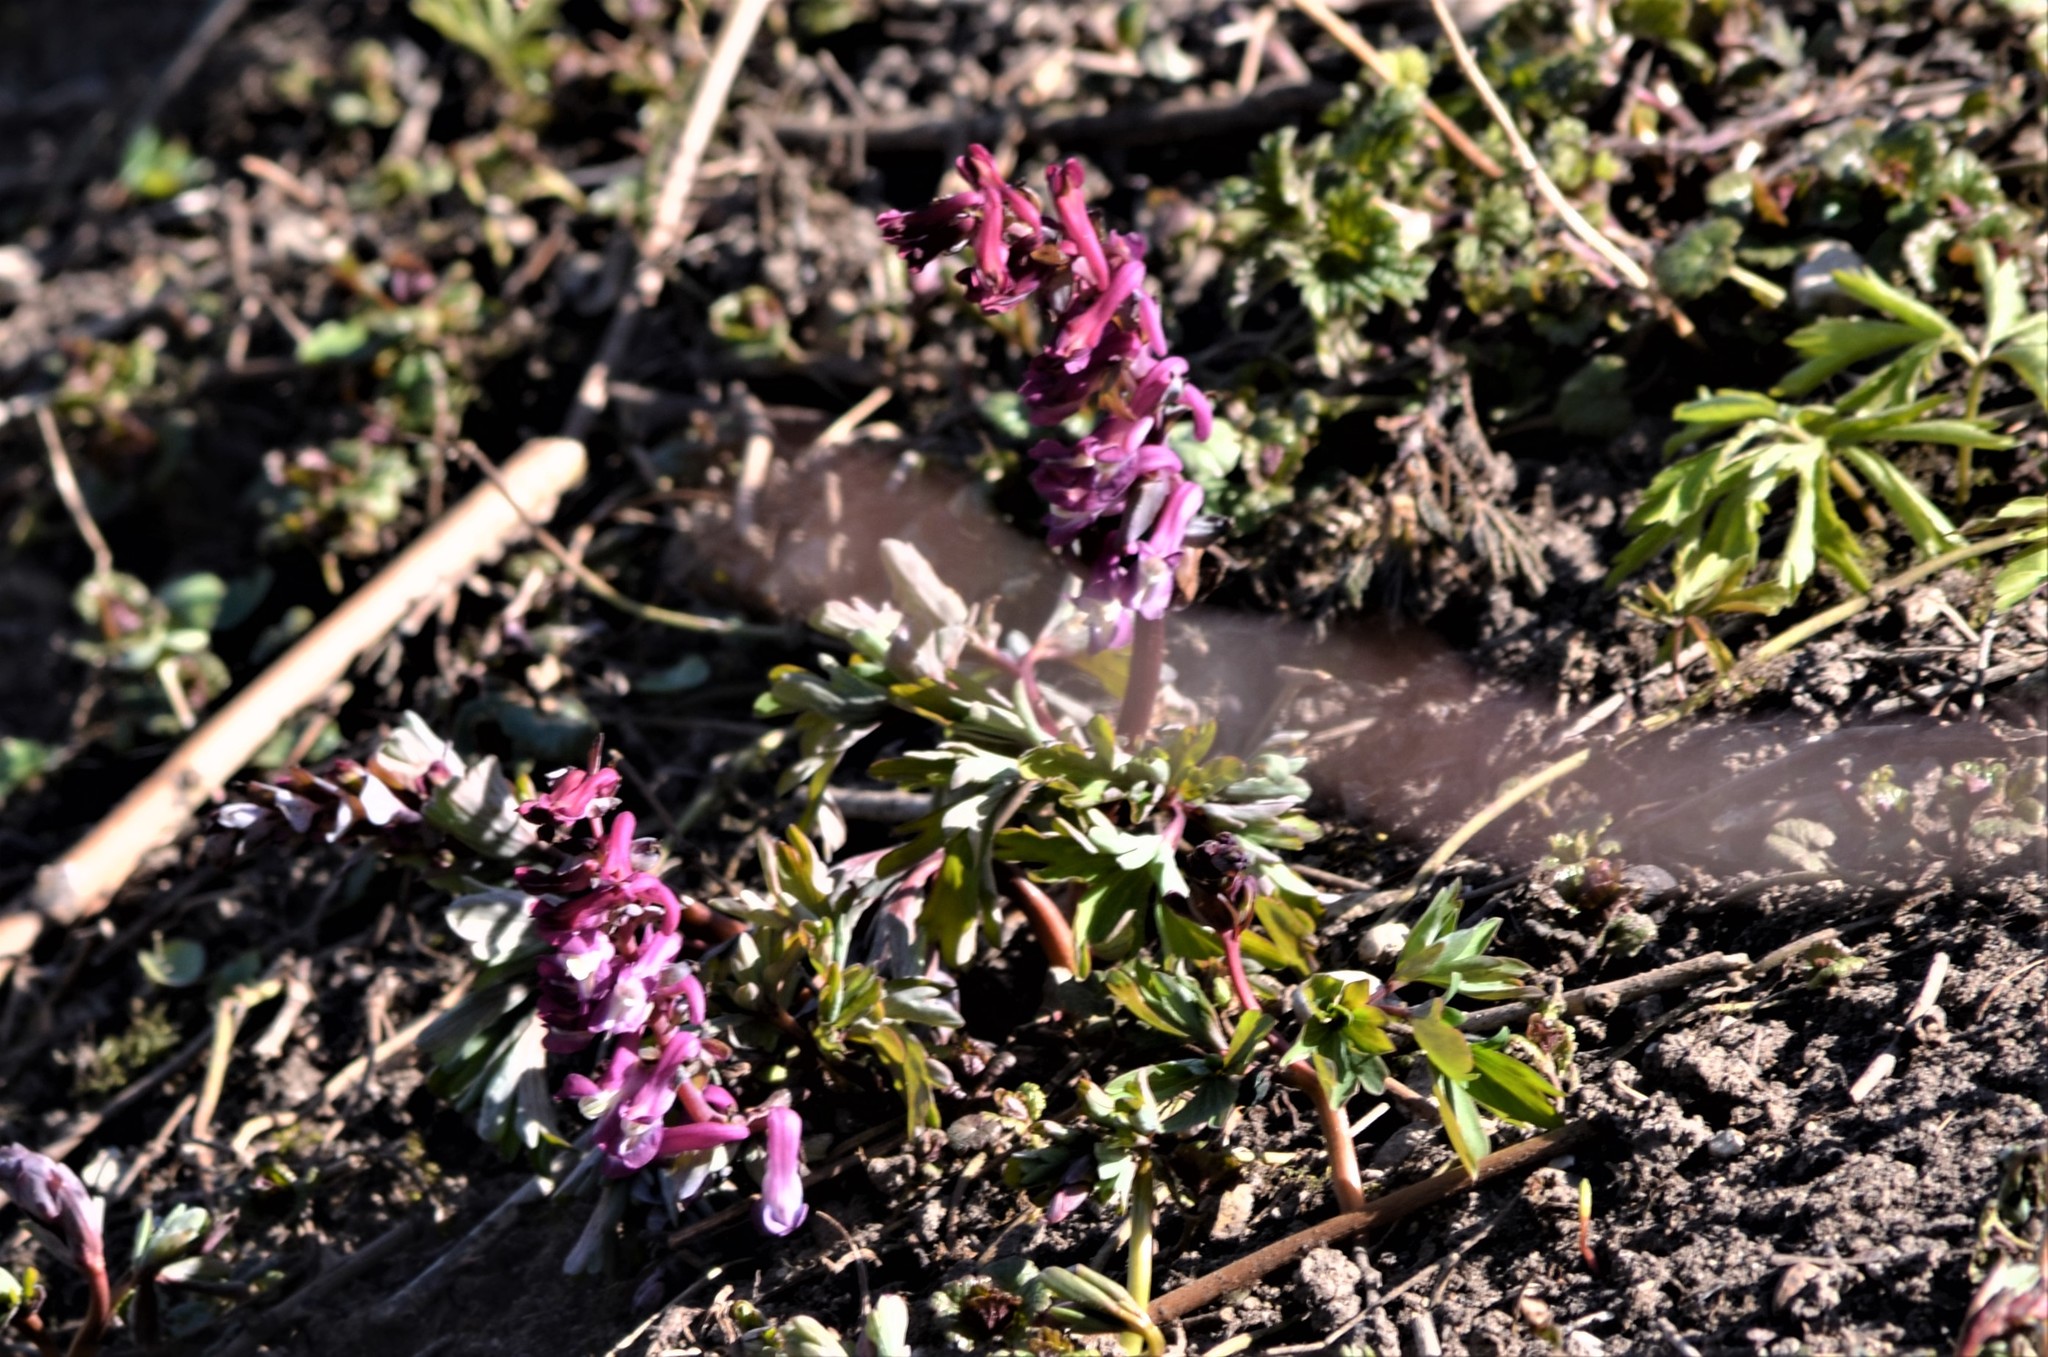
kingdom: Plantae
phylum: Tracheophyta
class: Magnoliopsida
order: Ranunculales
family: Papaveraceae
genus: Corydalis
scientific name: Corydalis cava
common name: Hollowroot
